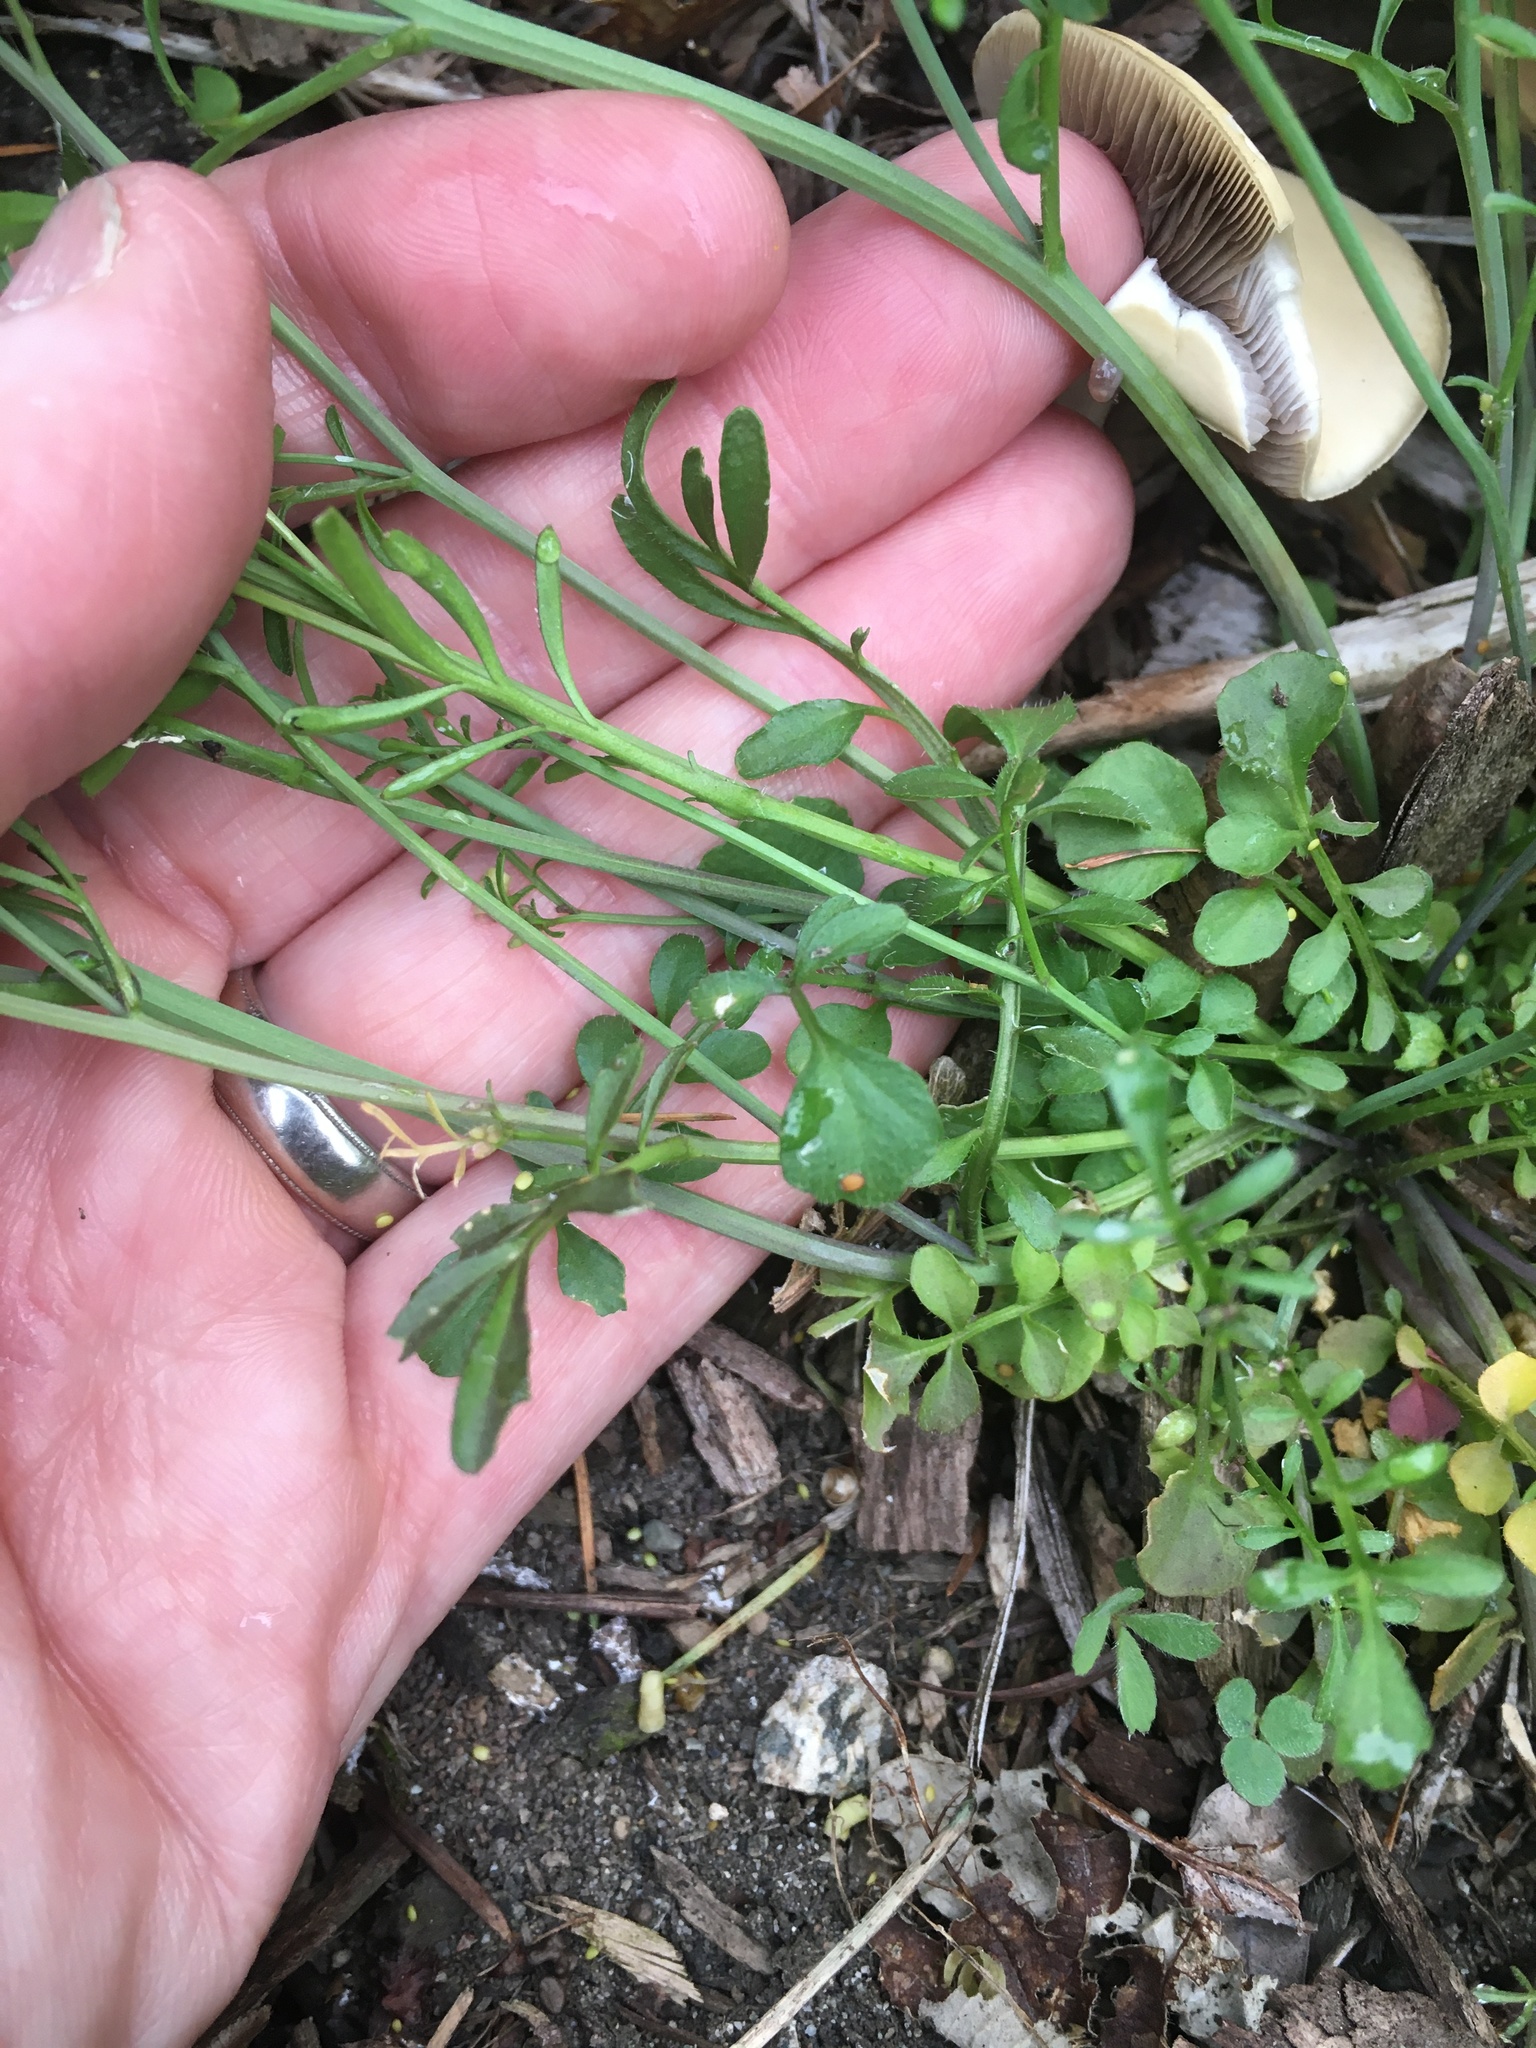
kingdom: Plantae
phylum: Tracheophyta
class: Magnoliopsida
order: Brassicales
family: Brassicaceae
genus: Cardamine
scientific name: Cardamine hirsuta
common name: Hairy bittercress
